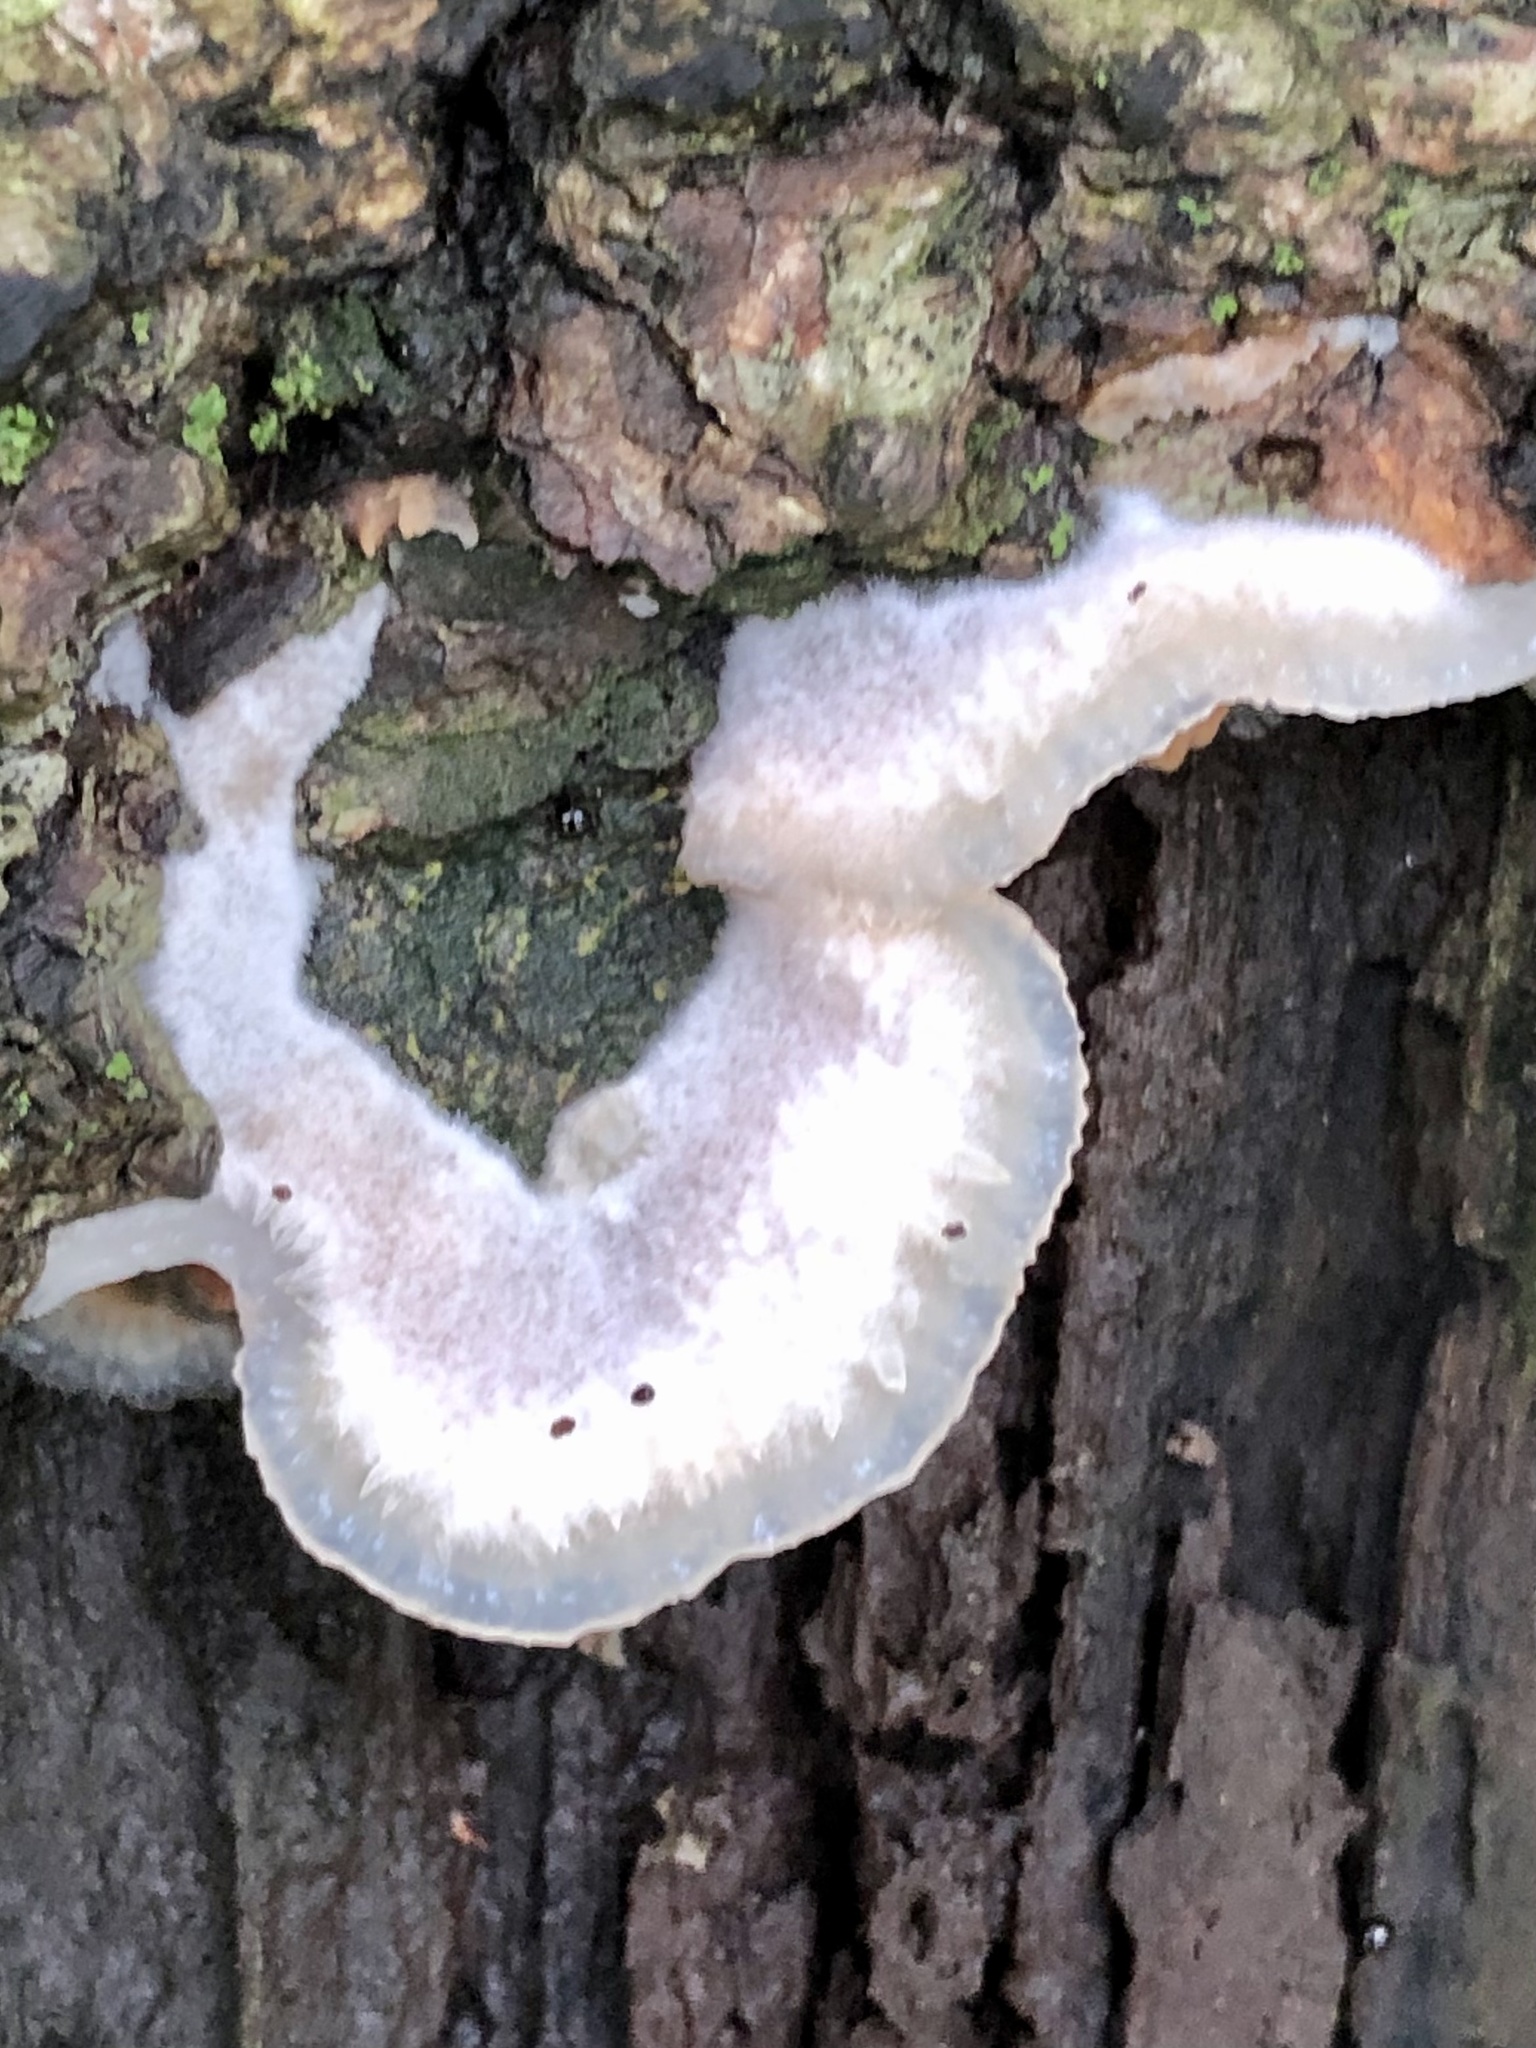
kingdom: Fungi
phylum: Basidiomycota
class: Agaricomycetes
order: Polyporales
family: Meruliaceae
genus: Phlebia
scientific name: Phlebia tremellosa
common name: Jelly rot
